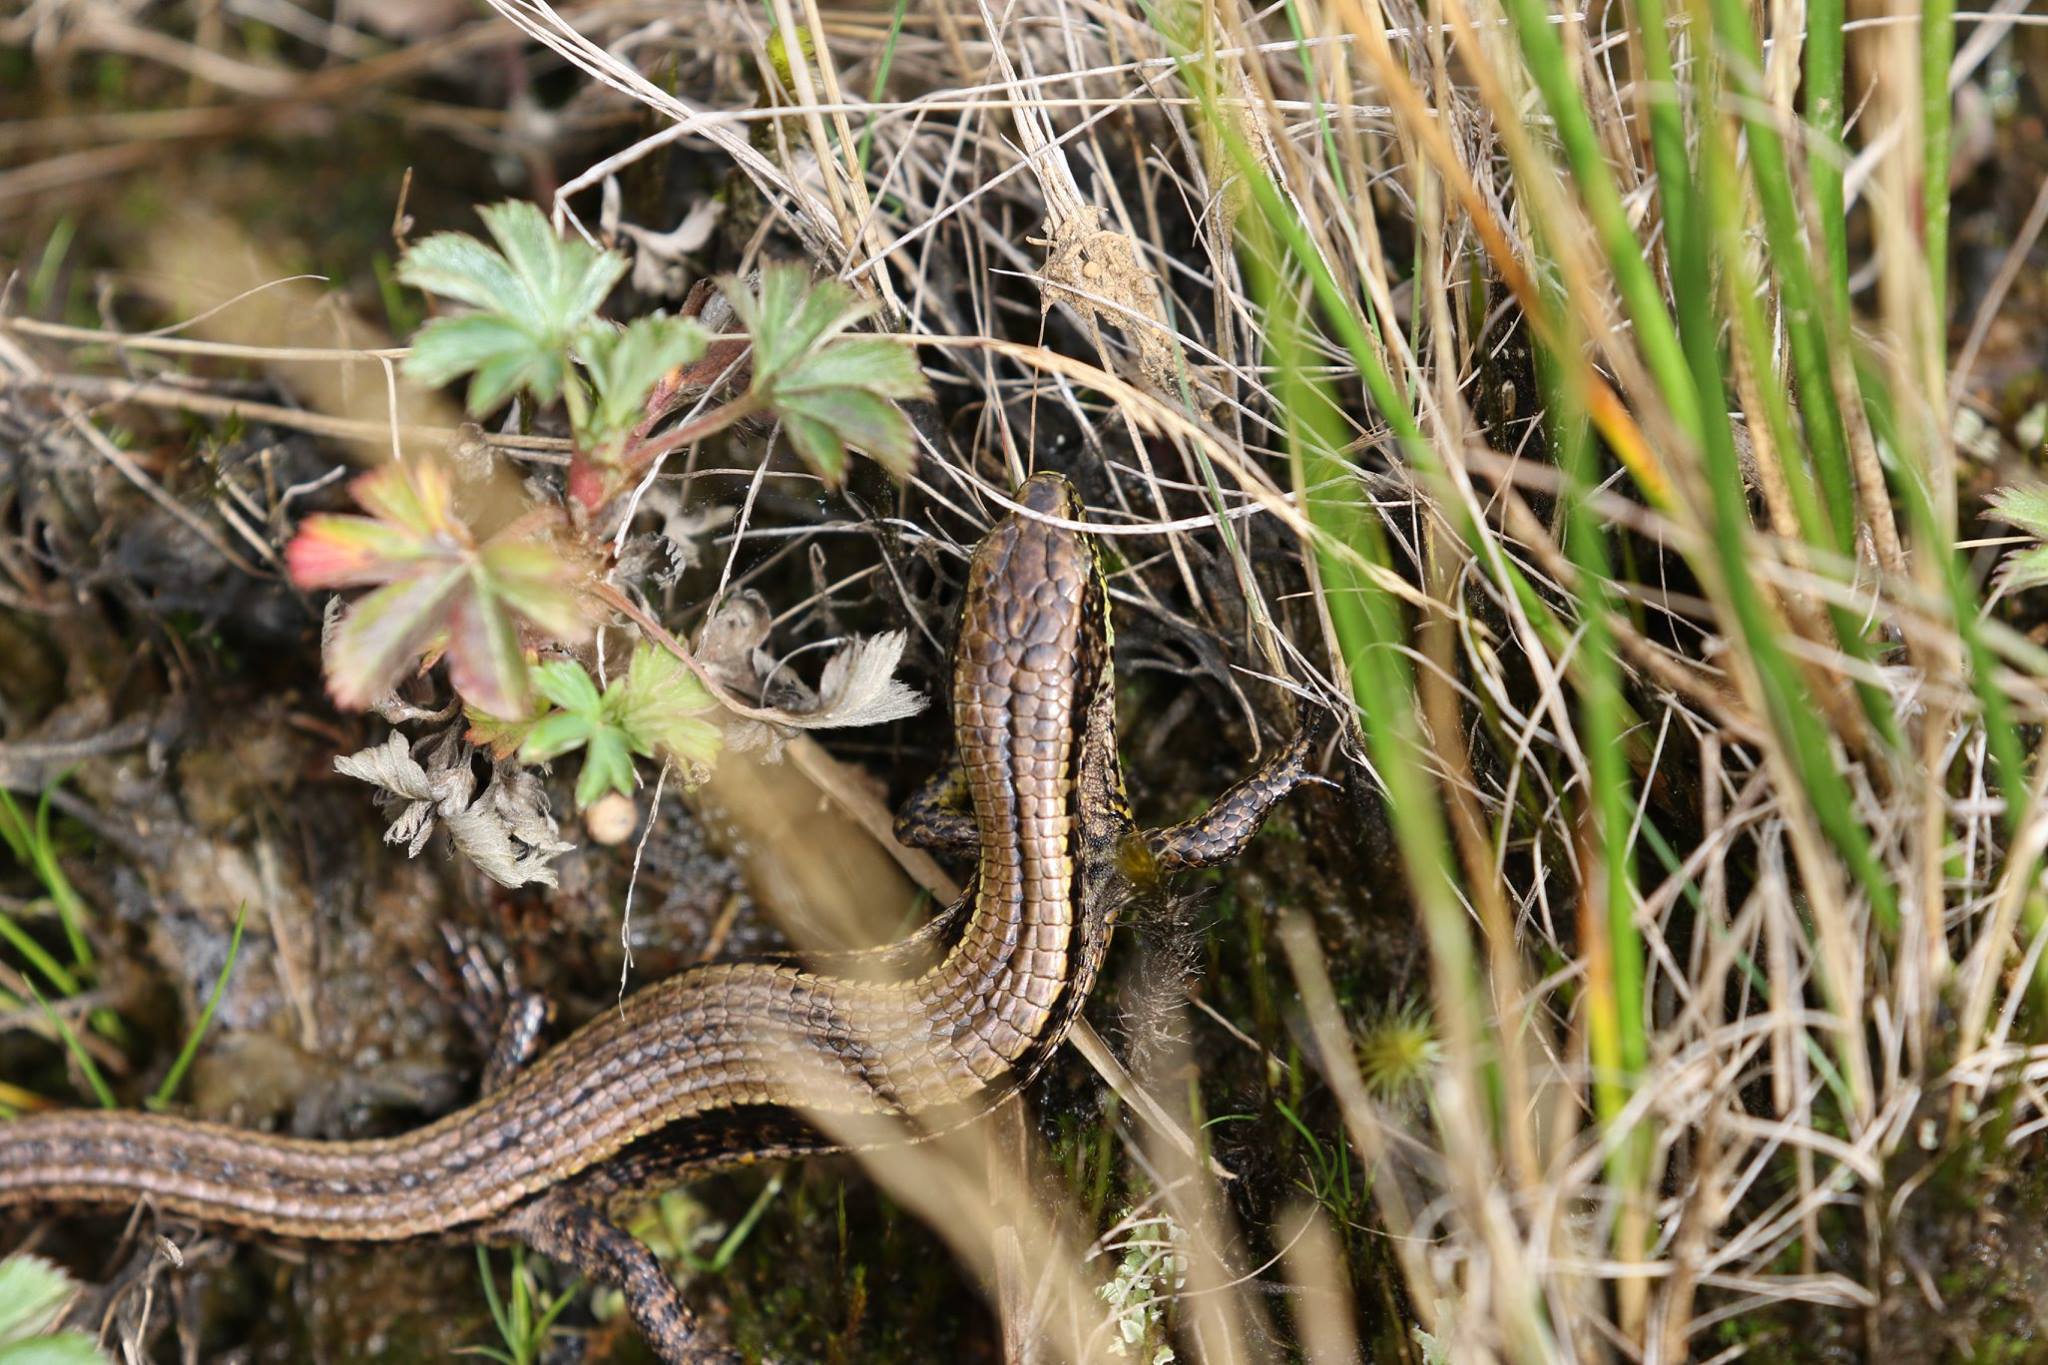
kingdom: Animalia
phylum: Chordata
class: Squamata
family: Alopoglossidae
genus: Alopoglossus
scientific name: Alopoglossus plicatus
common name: Taylor's largescale lizard
